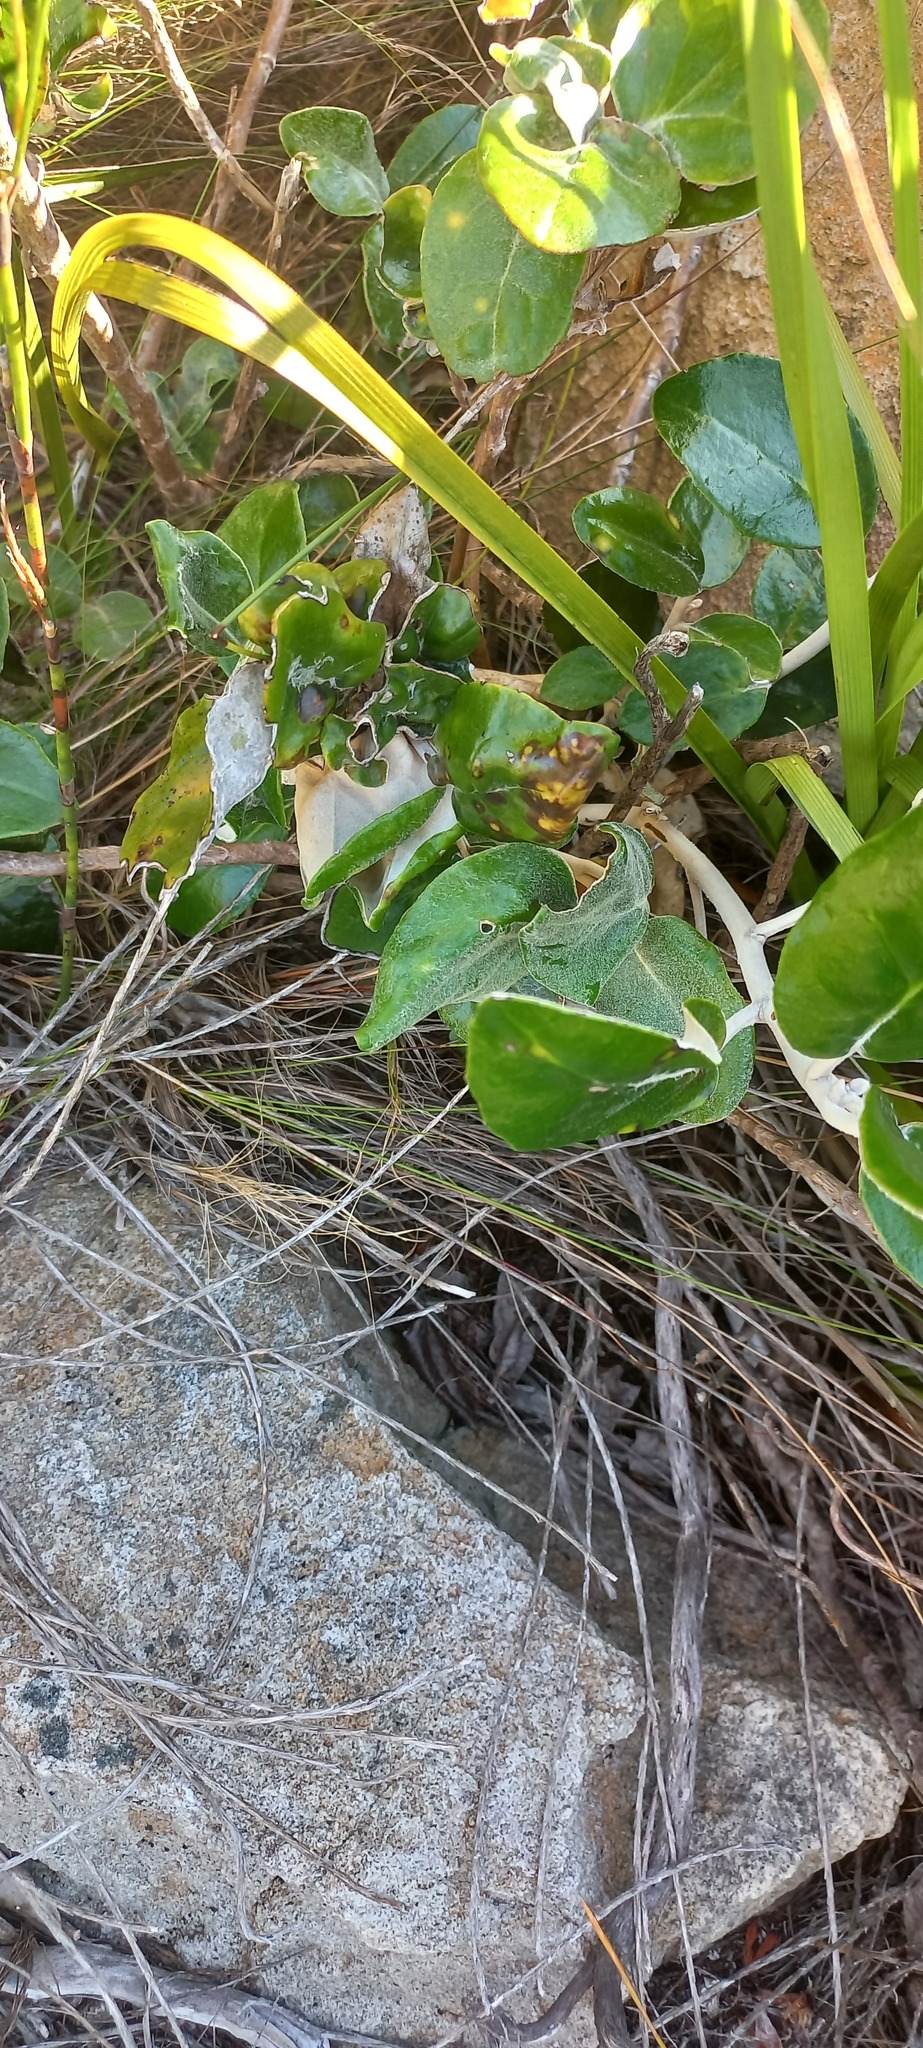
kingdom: Plantae
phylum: Tracheophyta
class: Magnoliopsida
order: Asterales
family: Asteraceae
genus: Capelio
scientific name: Capelio tabularis
